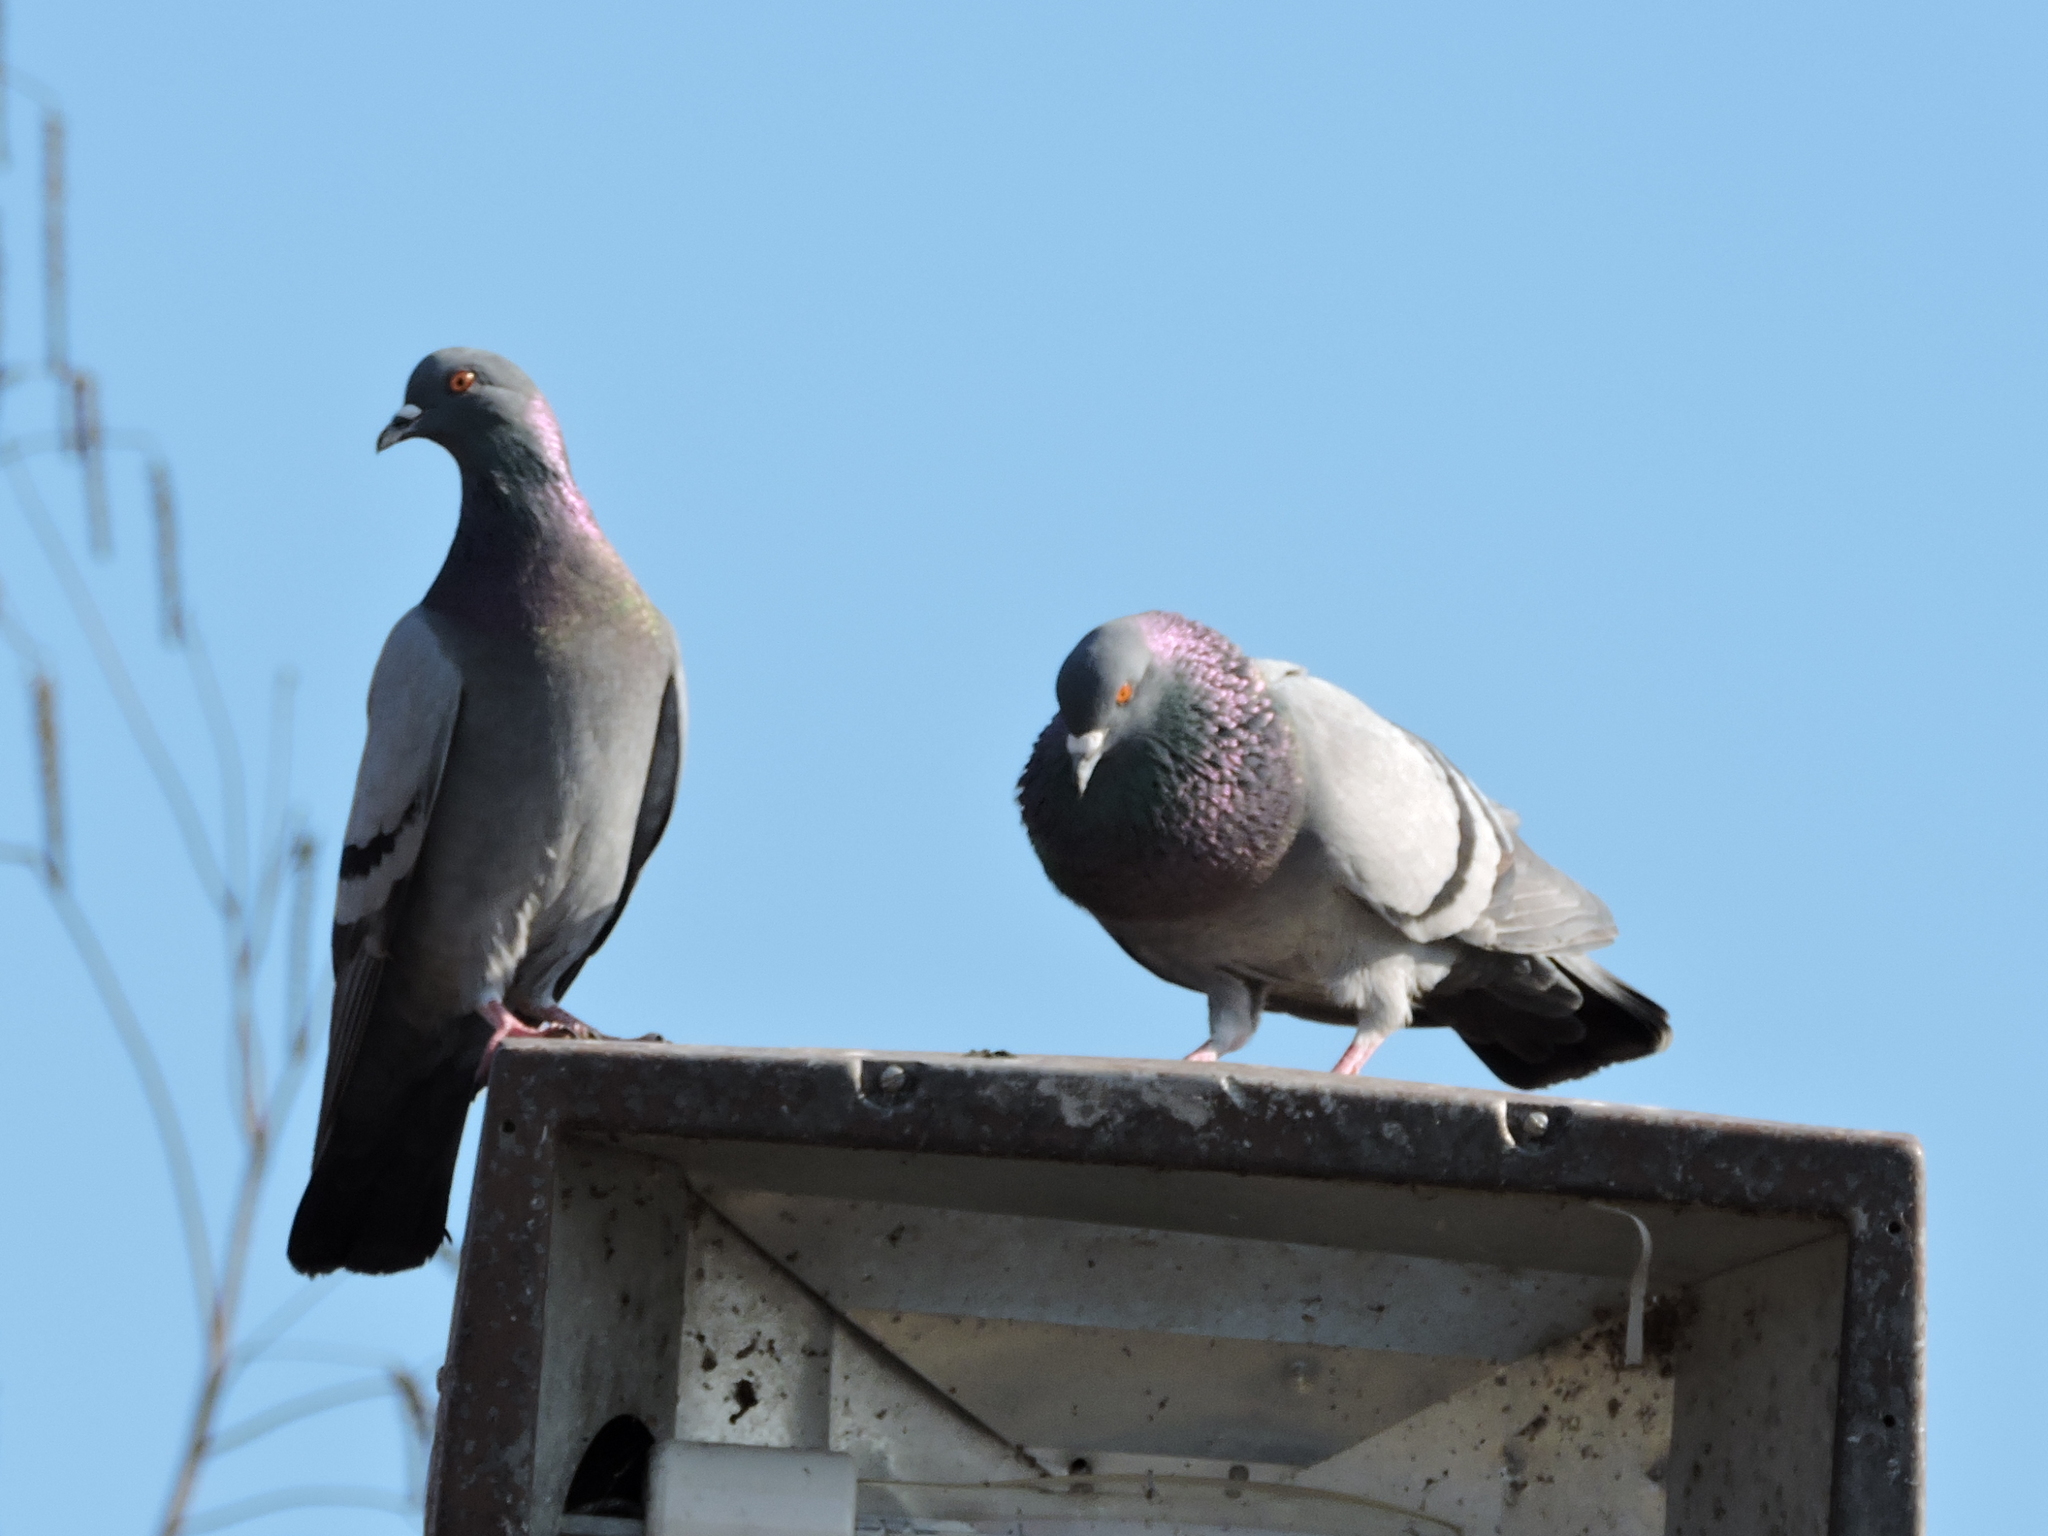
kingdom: Animalia
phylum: Chordata
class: Aves
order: Columbiformes
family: Columbidae
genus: Columba
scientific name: Columba livia
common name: Rock pigeon
